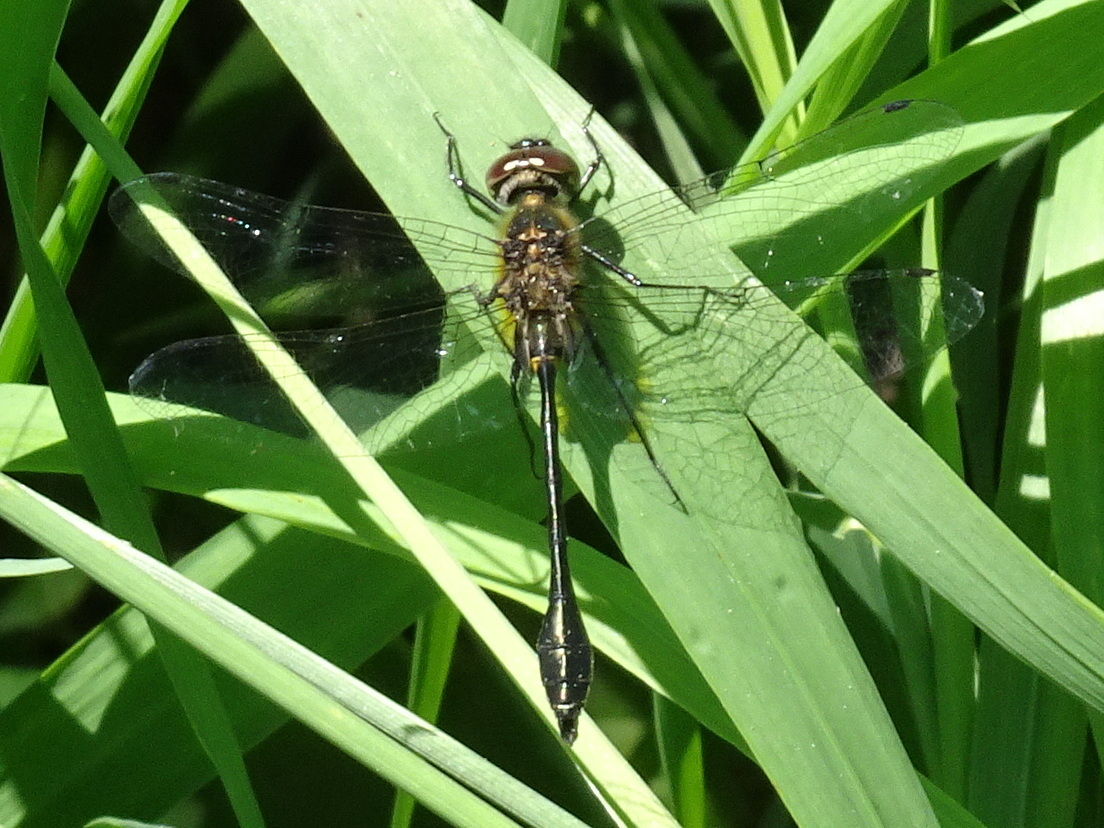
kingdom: Animalia
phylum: Arthropoda
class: Insecta
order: Odonata
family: Corduliidae
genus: Dorocordulia
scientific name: Dorocordulia libera
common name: Racket-tailed emerald
